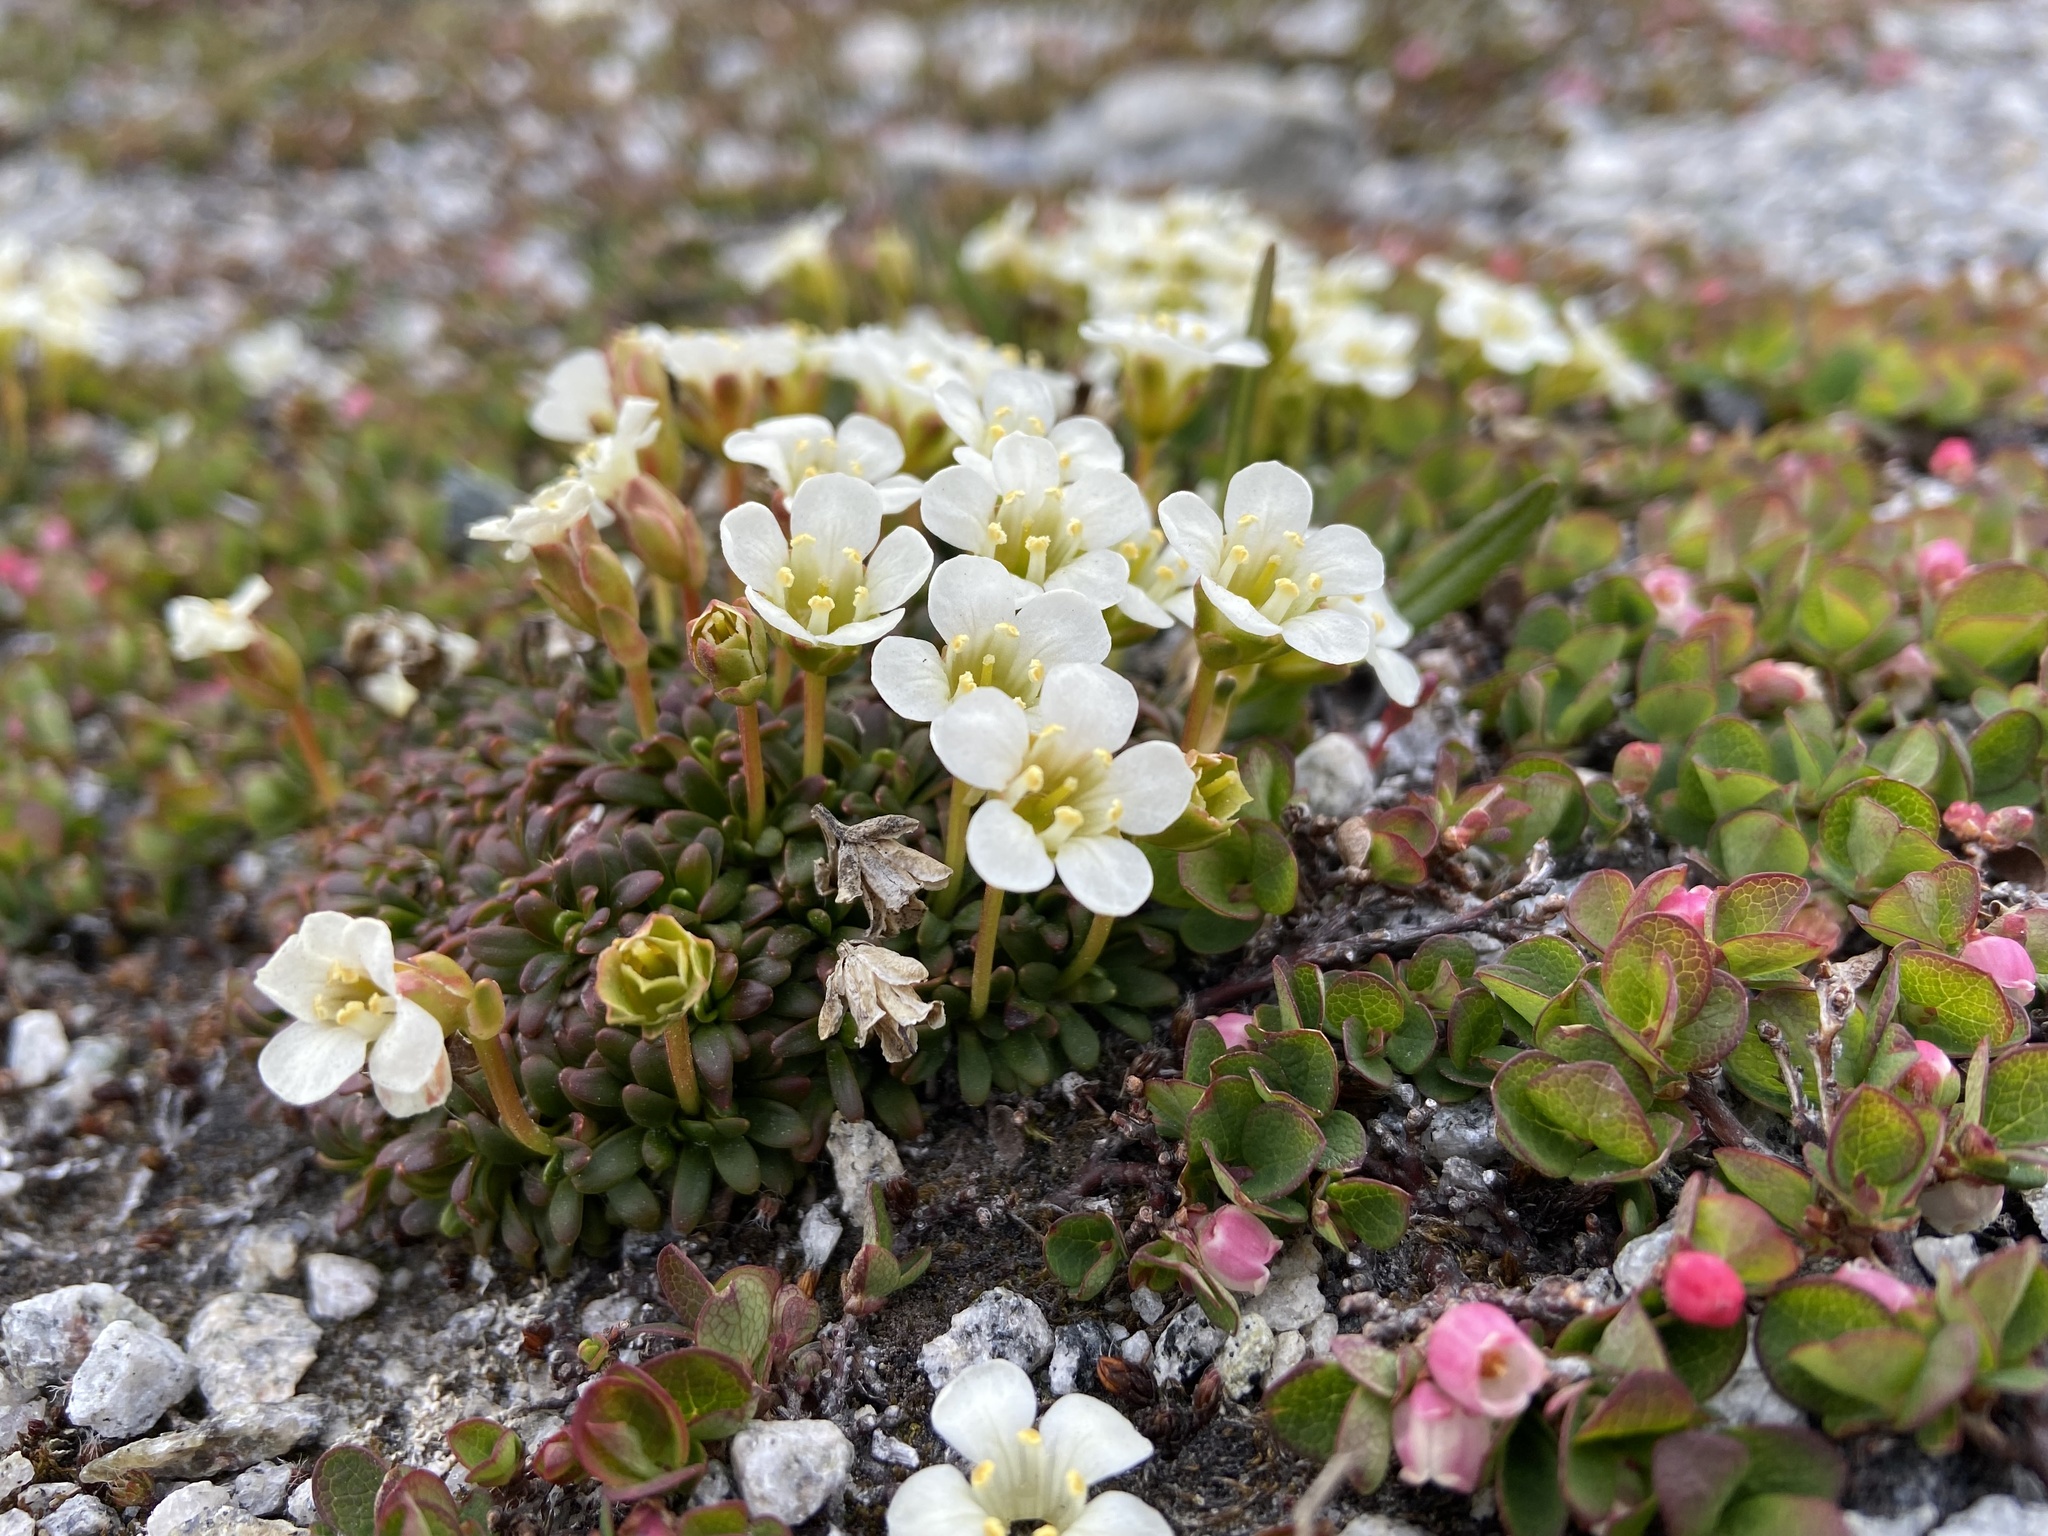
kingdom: Plantae
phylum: Tracheophyta
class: Magnoliopsida
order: Ericales
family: Diapensiaceae
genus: Diapensia
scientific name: Diapensia lapponica
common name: Diapensia
